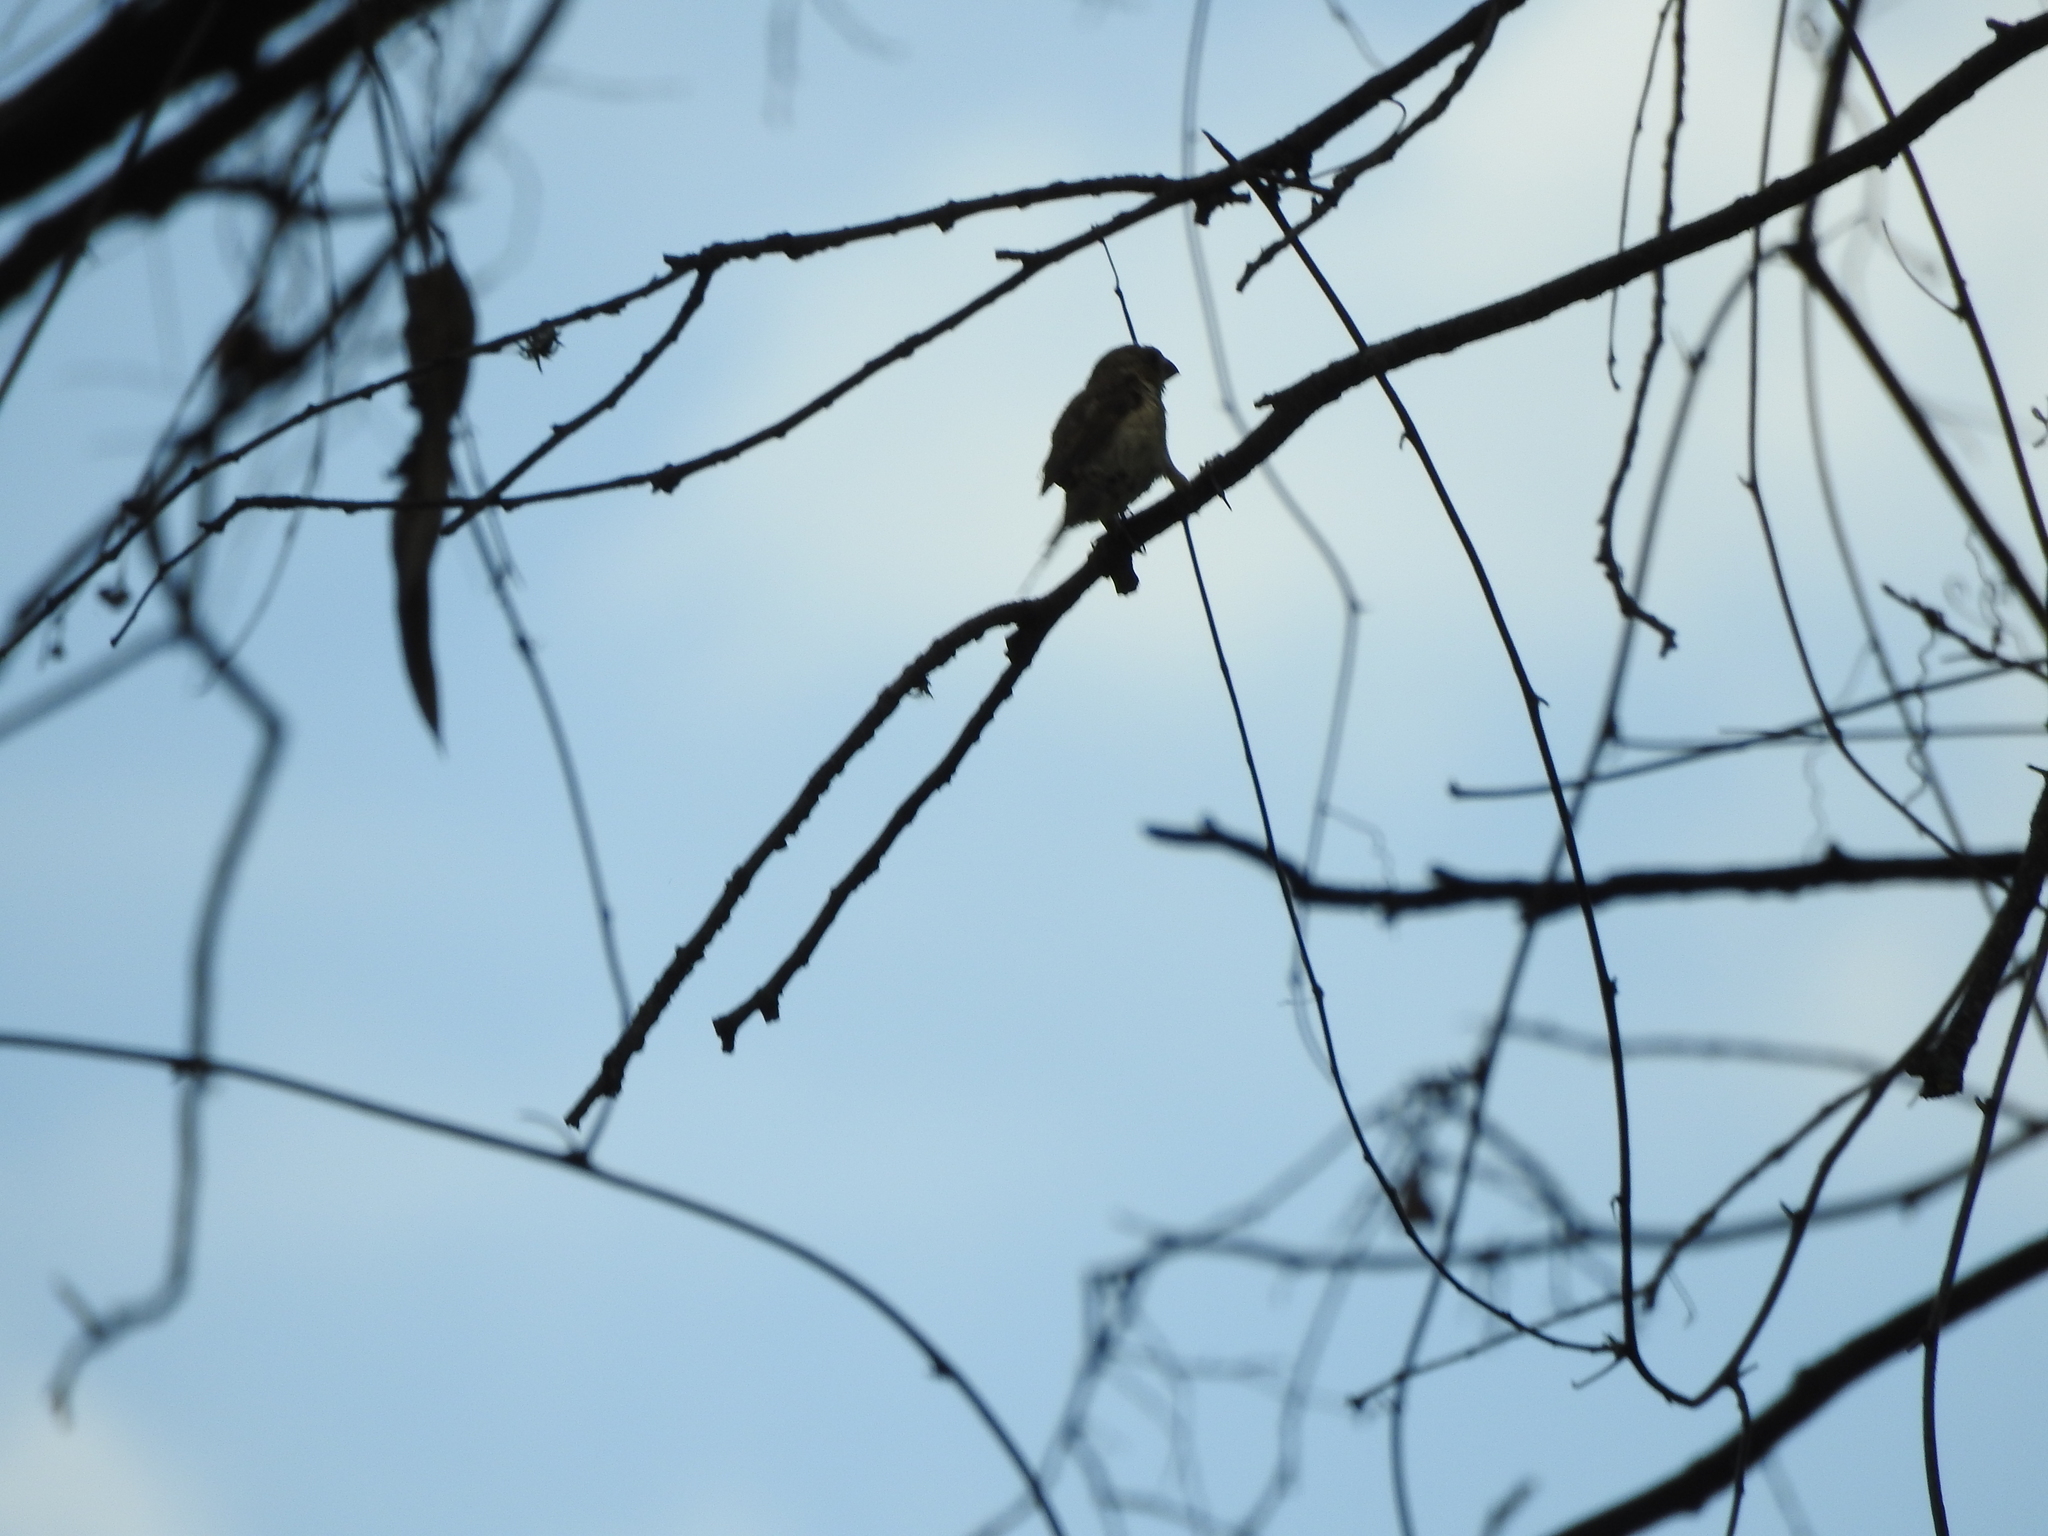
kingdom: Animalia
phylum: Chordata
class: Aves
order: Passeriformes
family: Thraupidae
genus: Sporophila
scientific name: Sporophila torqueola
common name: White-collared seedeater
